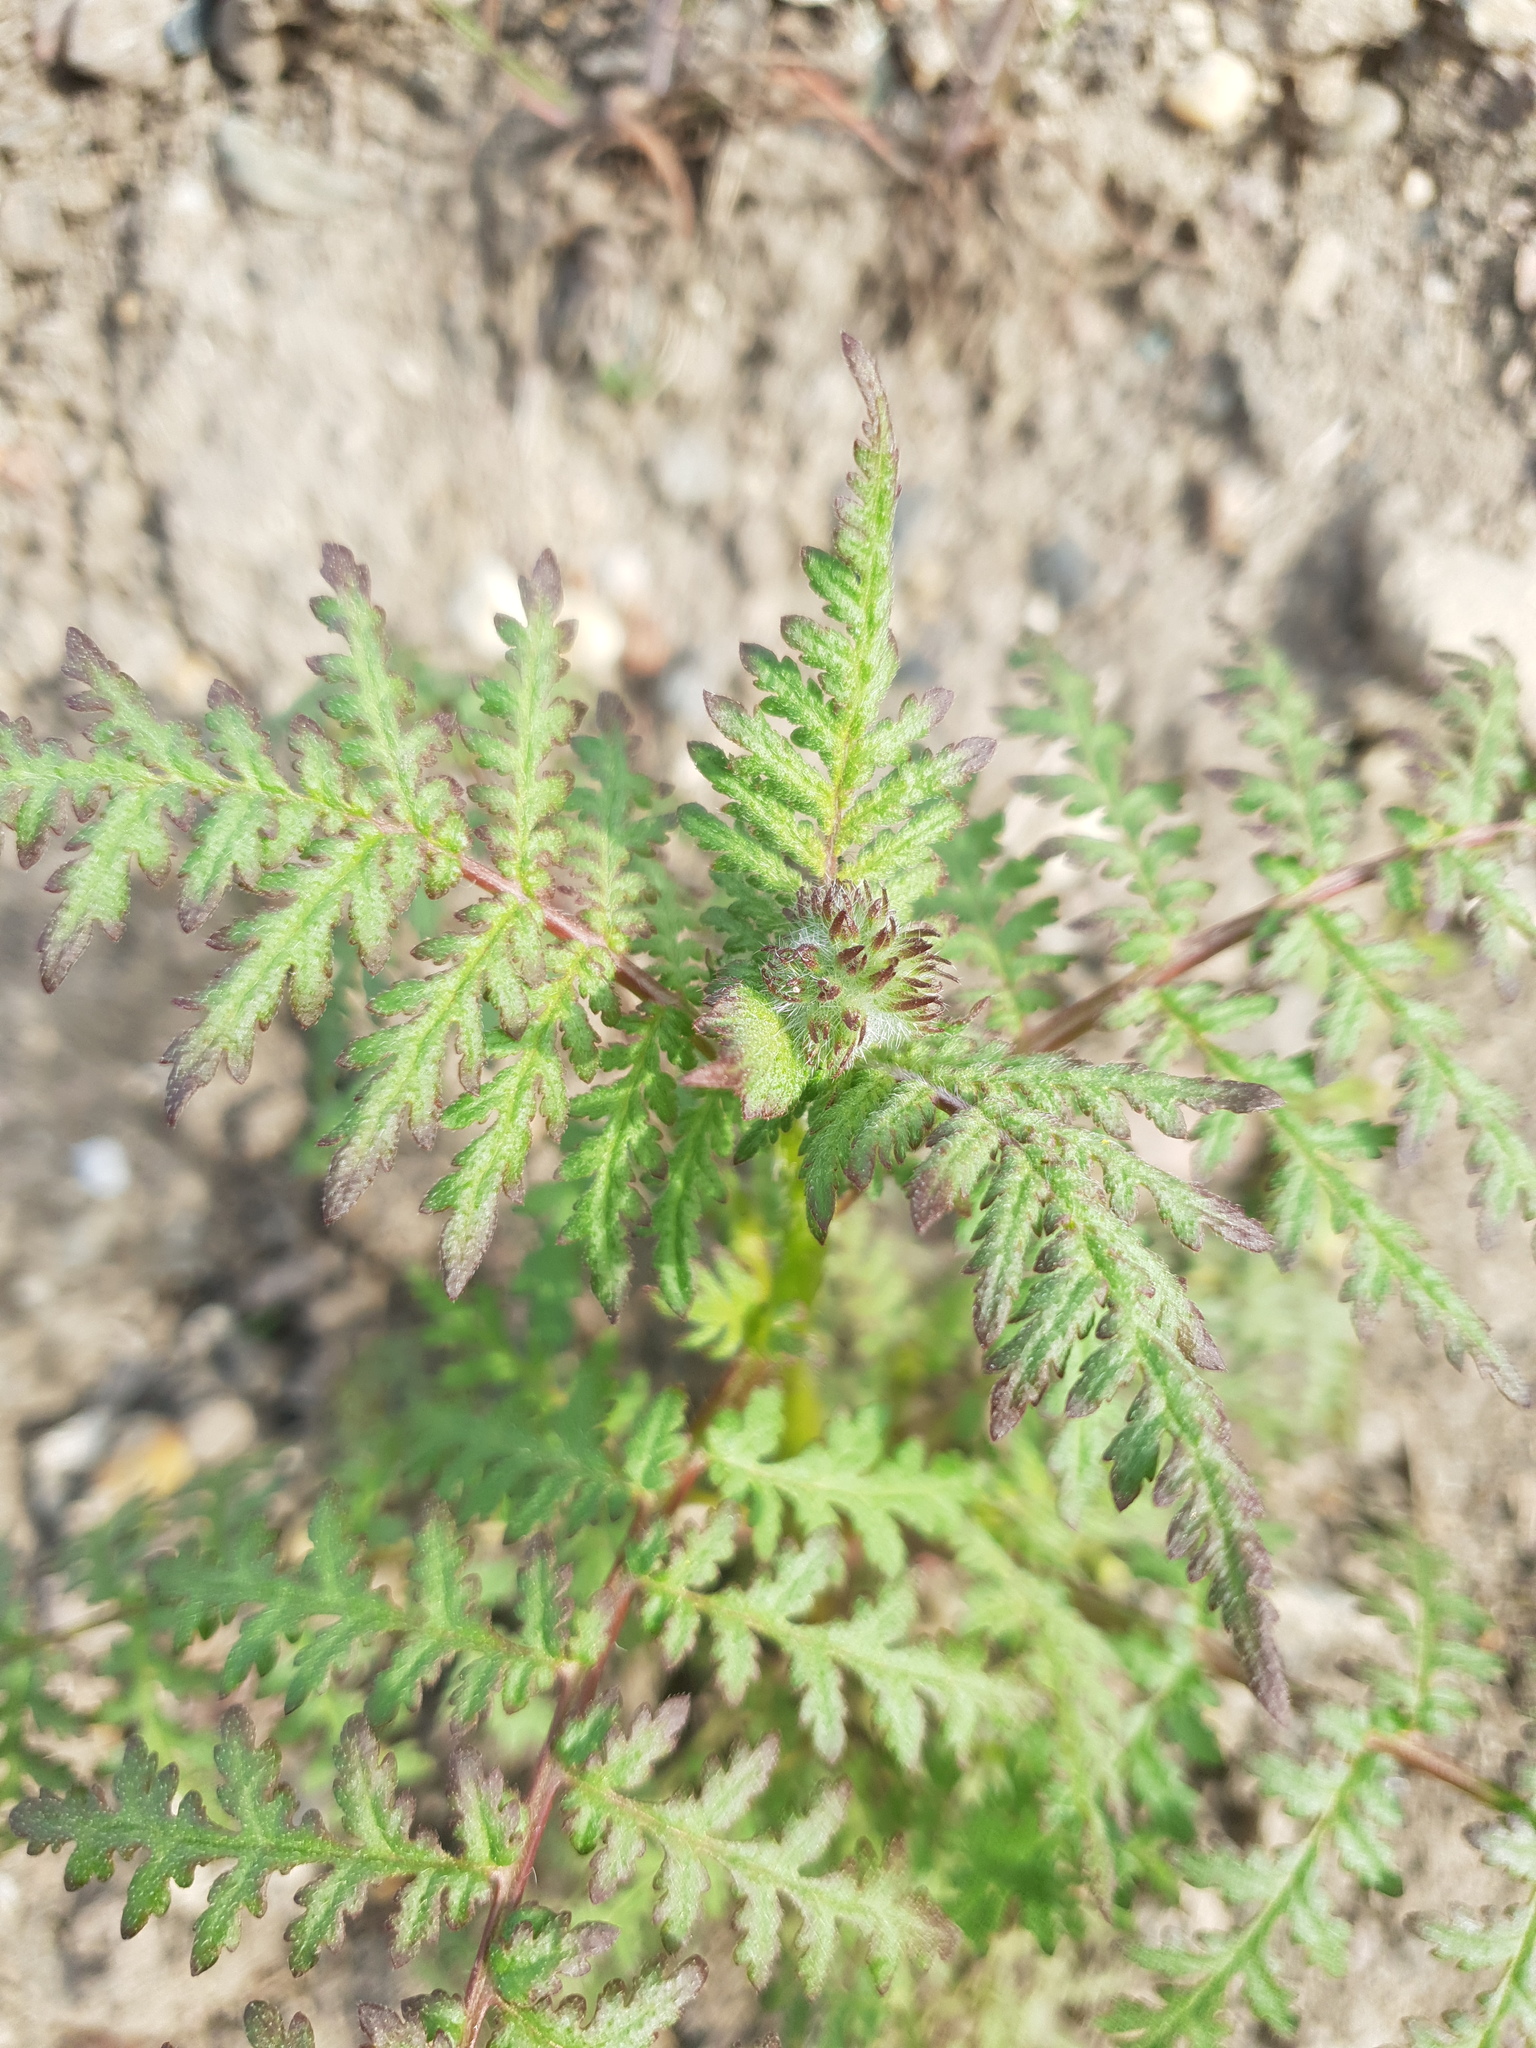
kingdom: Plantae
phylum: Tracheophyta
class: Magnoliopsida
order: Boraginales
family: Hydrophyllaceae
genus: Phacelia
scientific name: Phacelia tanacetifolia
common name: Phacelia
